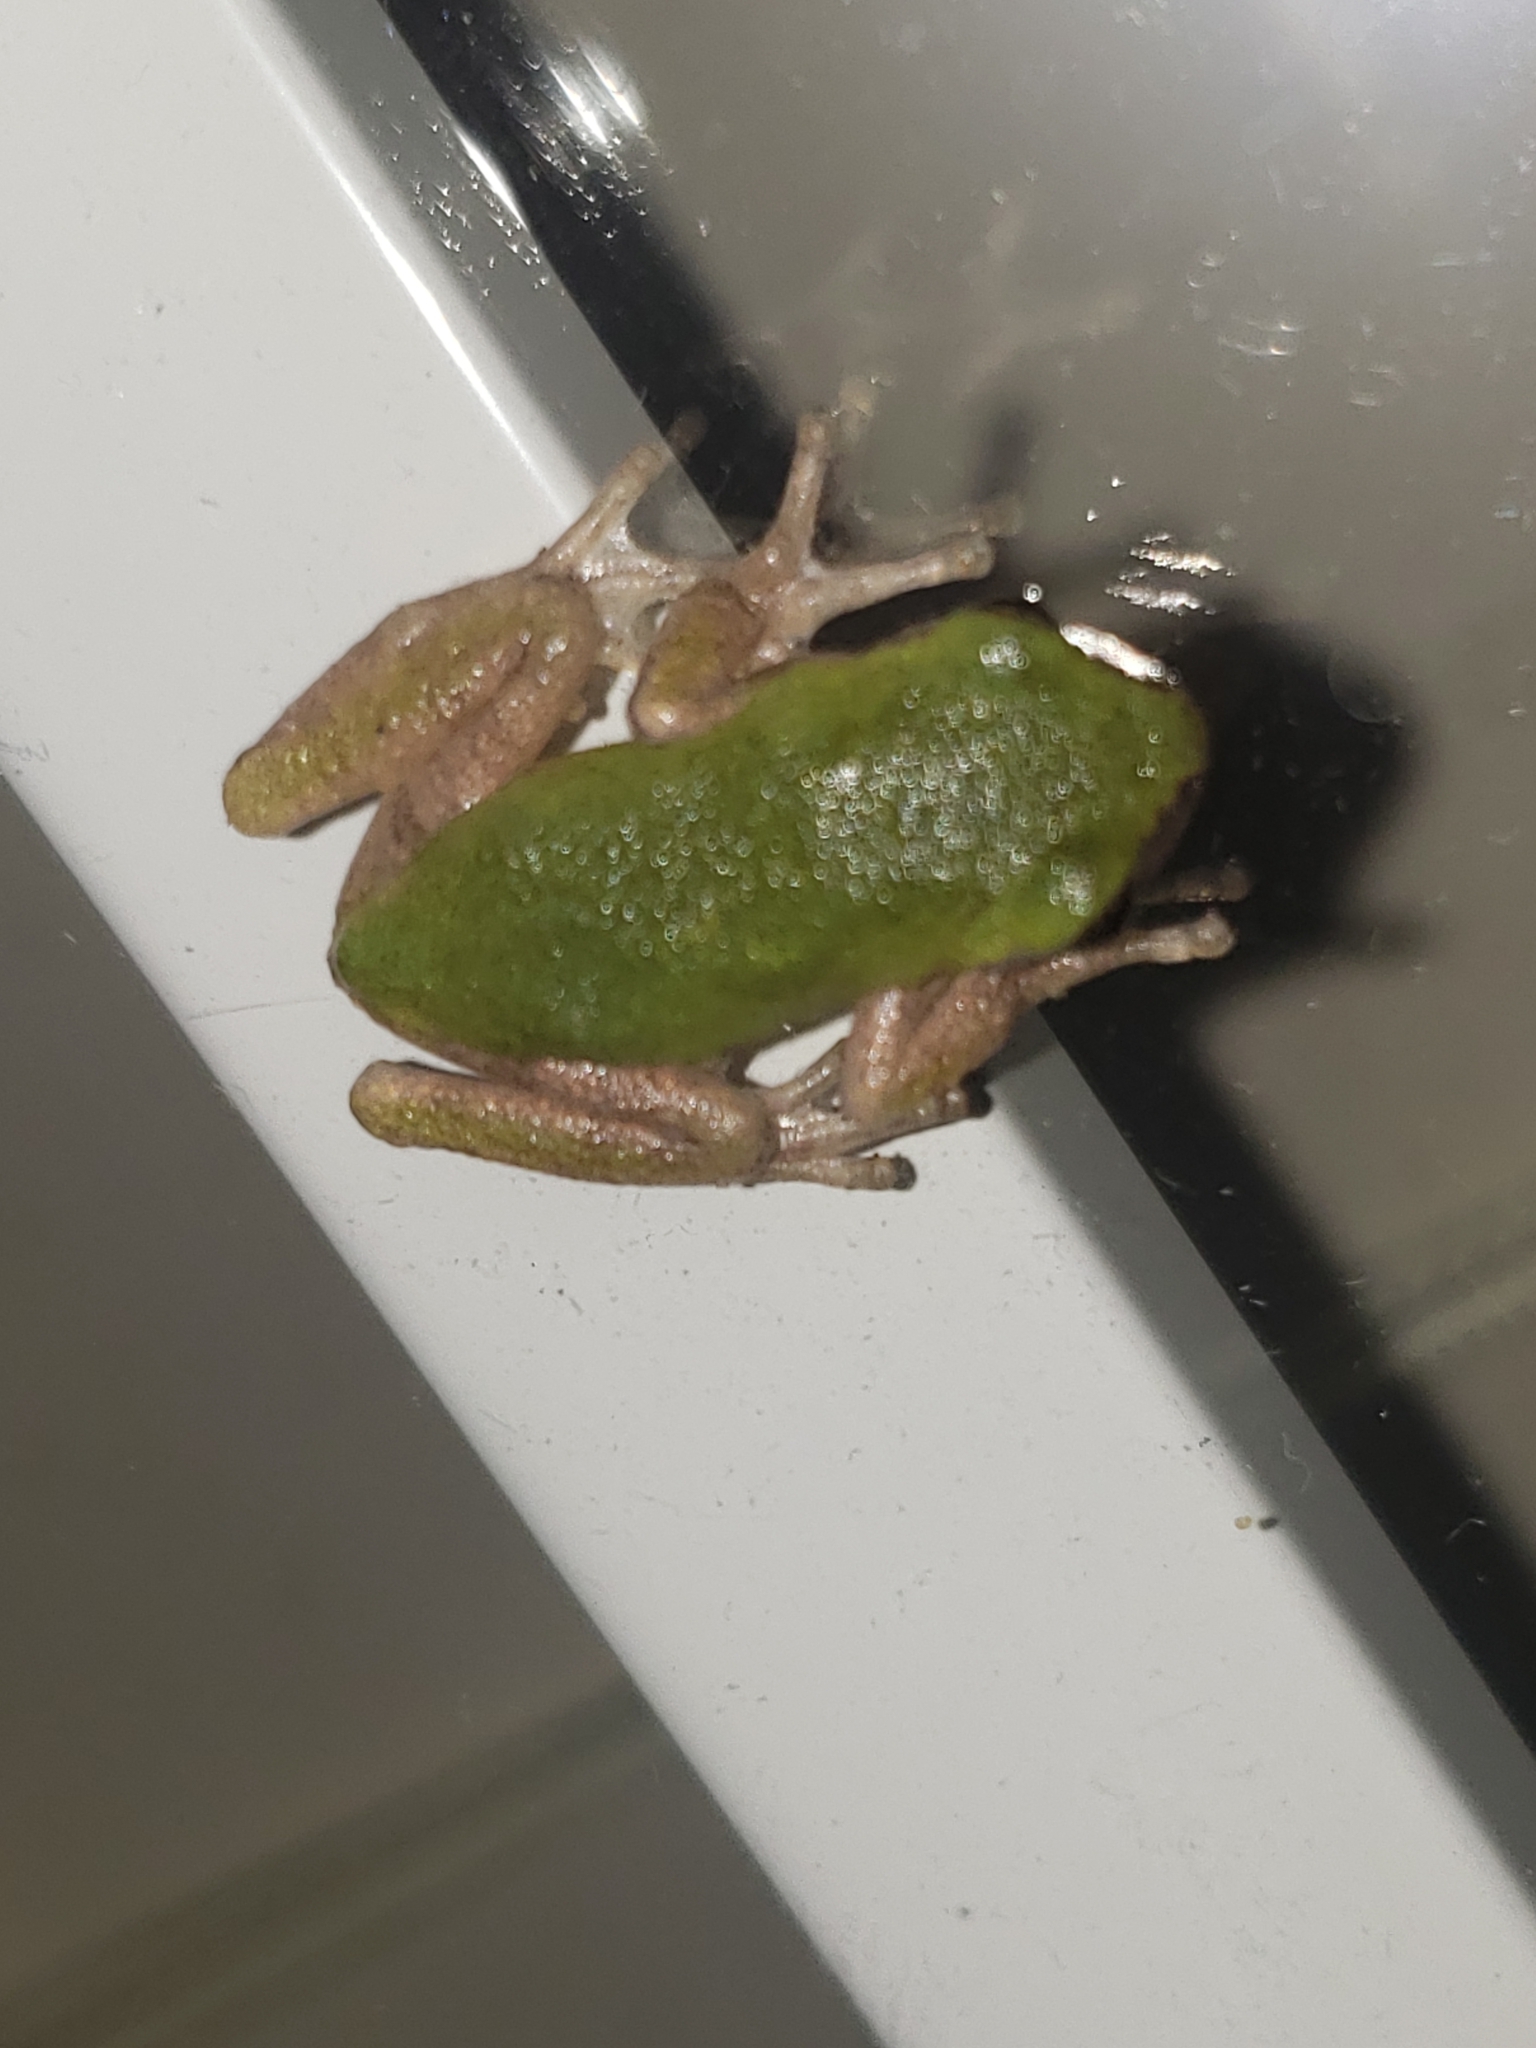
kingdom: Animalia
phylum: Chordata
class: Amphibia
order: Anura
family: Hylidae
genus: Hyla
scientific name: Hyla
